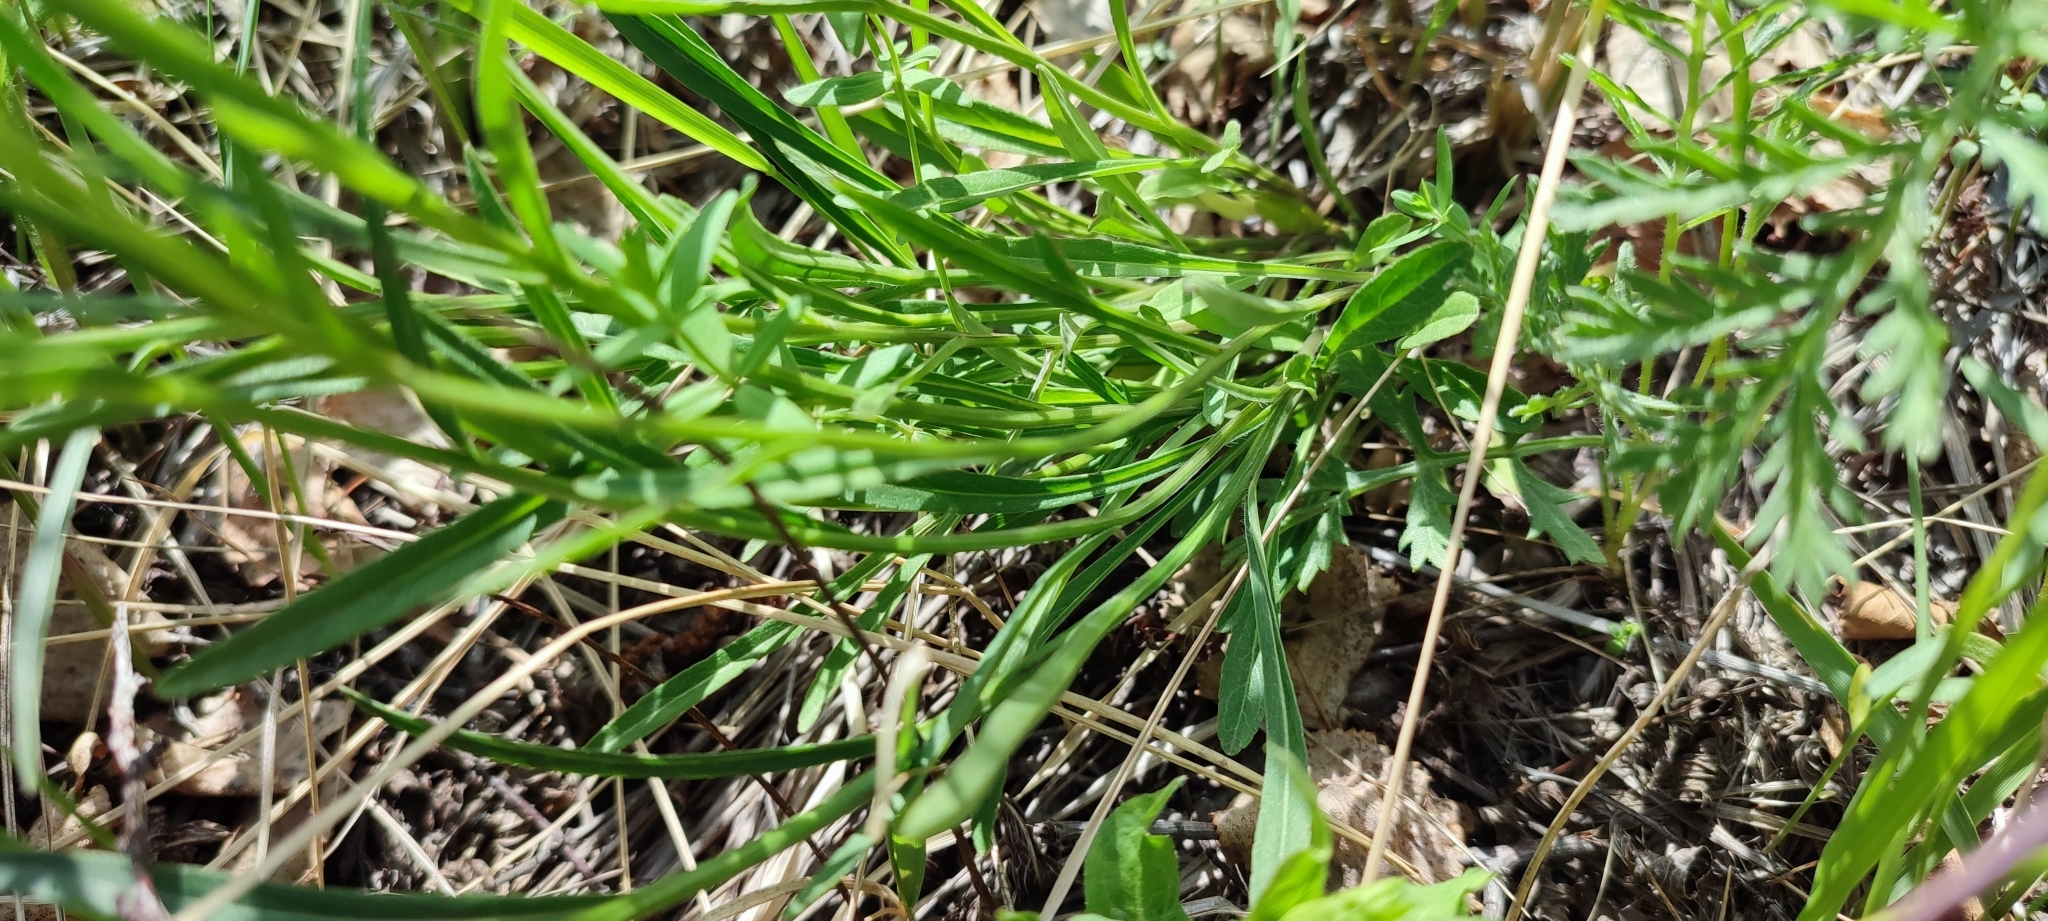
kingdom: Plantae
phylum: Tracheophyta
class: Magnoliopsida
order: Asterales
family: Campanulaceae
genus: Campanula
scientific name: Campanula stevenii
